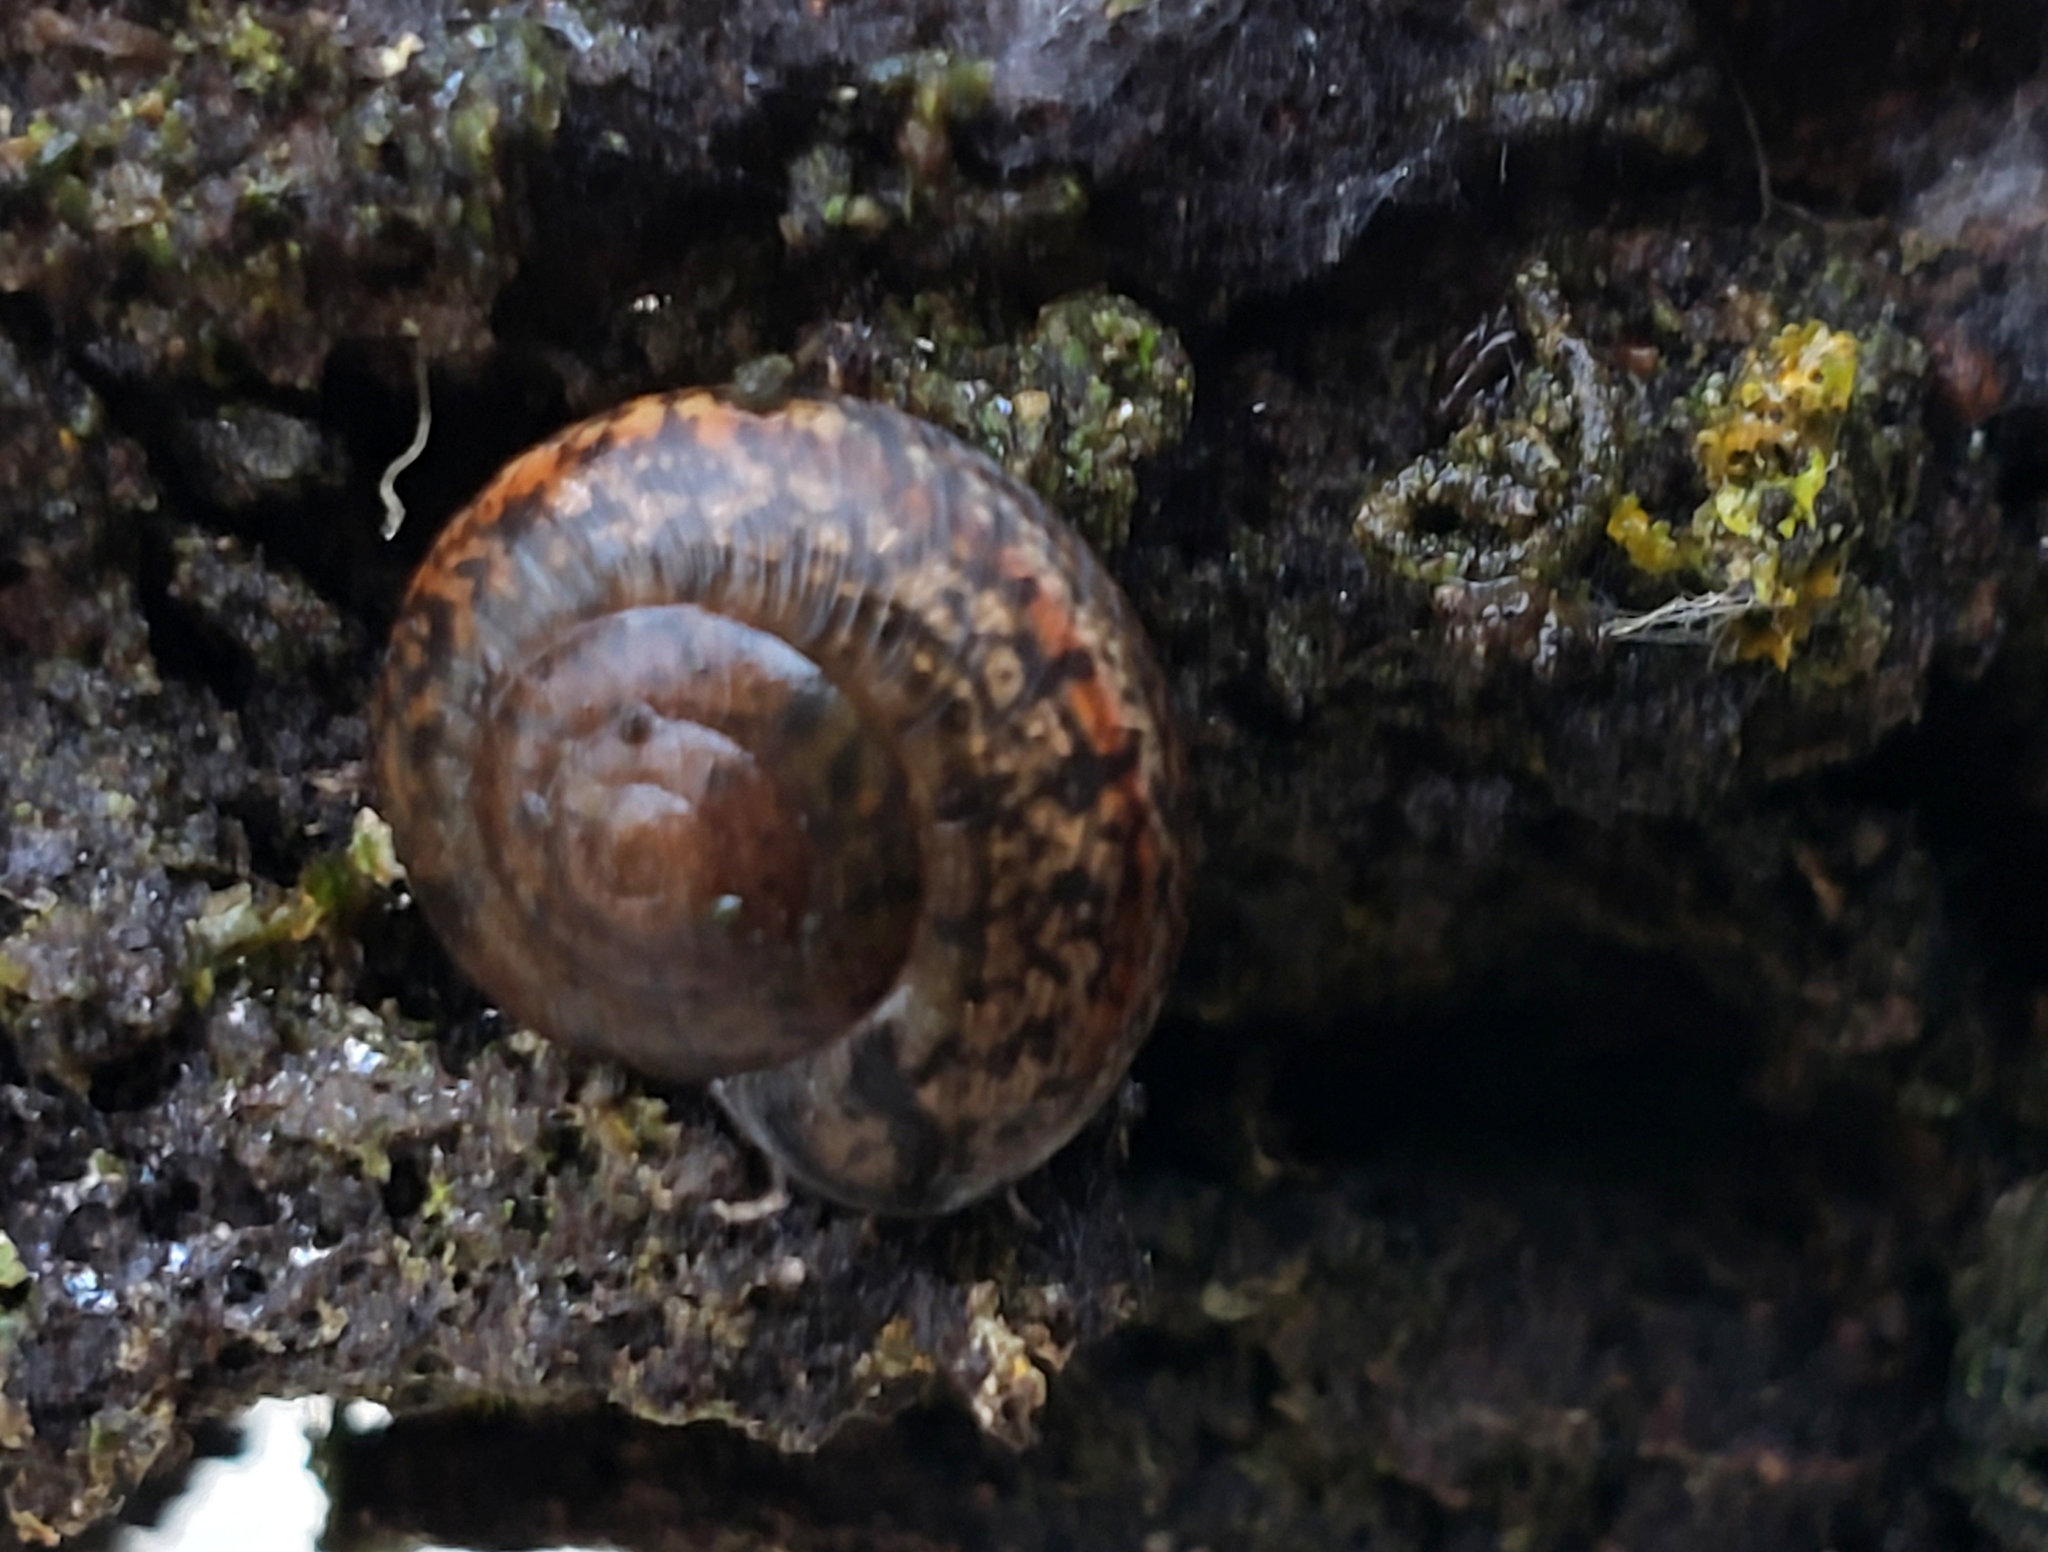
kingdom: Animalia
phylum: Mollusca
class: Gastropoda
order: Stylommatophora
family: Xanthonychidae
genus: Helminthoglypta
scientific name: Helminthoglypta cypreophila
